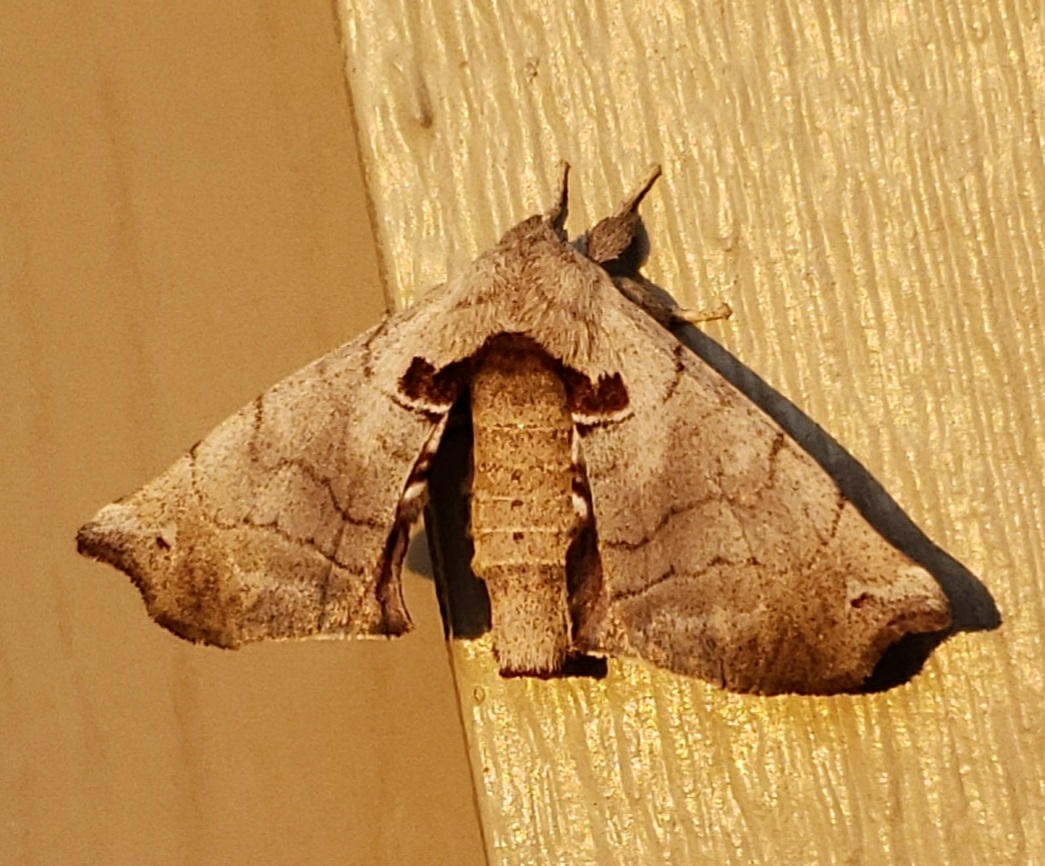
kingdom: Animalia
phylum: Arthropoda
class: Insecta
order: Lepidoptera
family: Apatelodidae
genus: Hygrochroa
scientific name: Hygrochroa Apatelodes torrefacta
